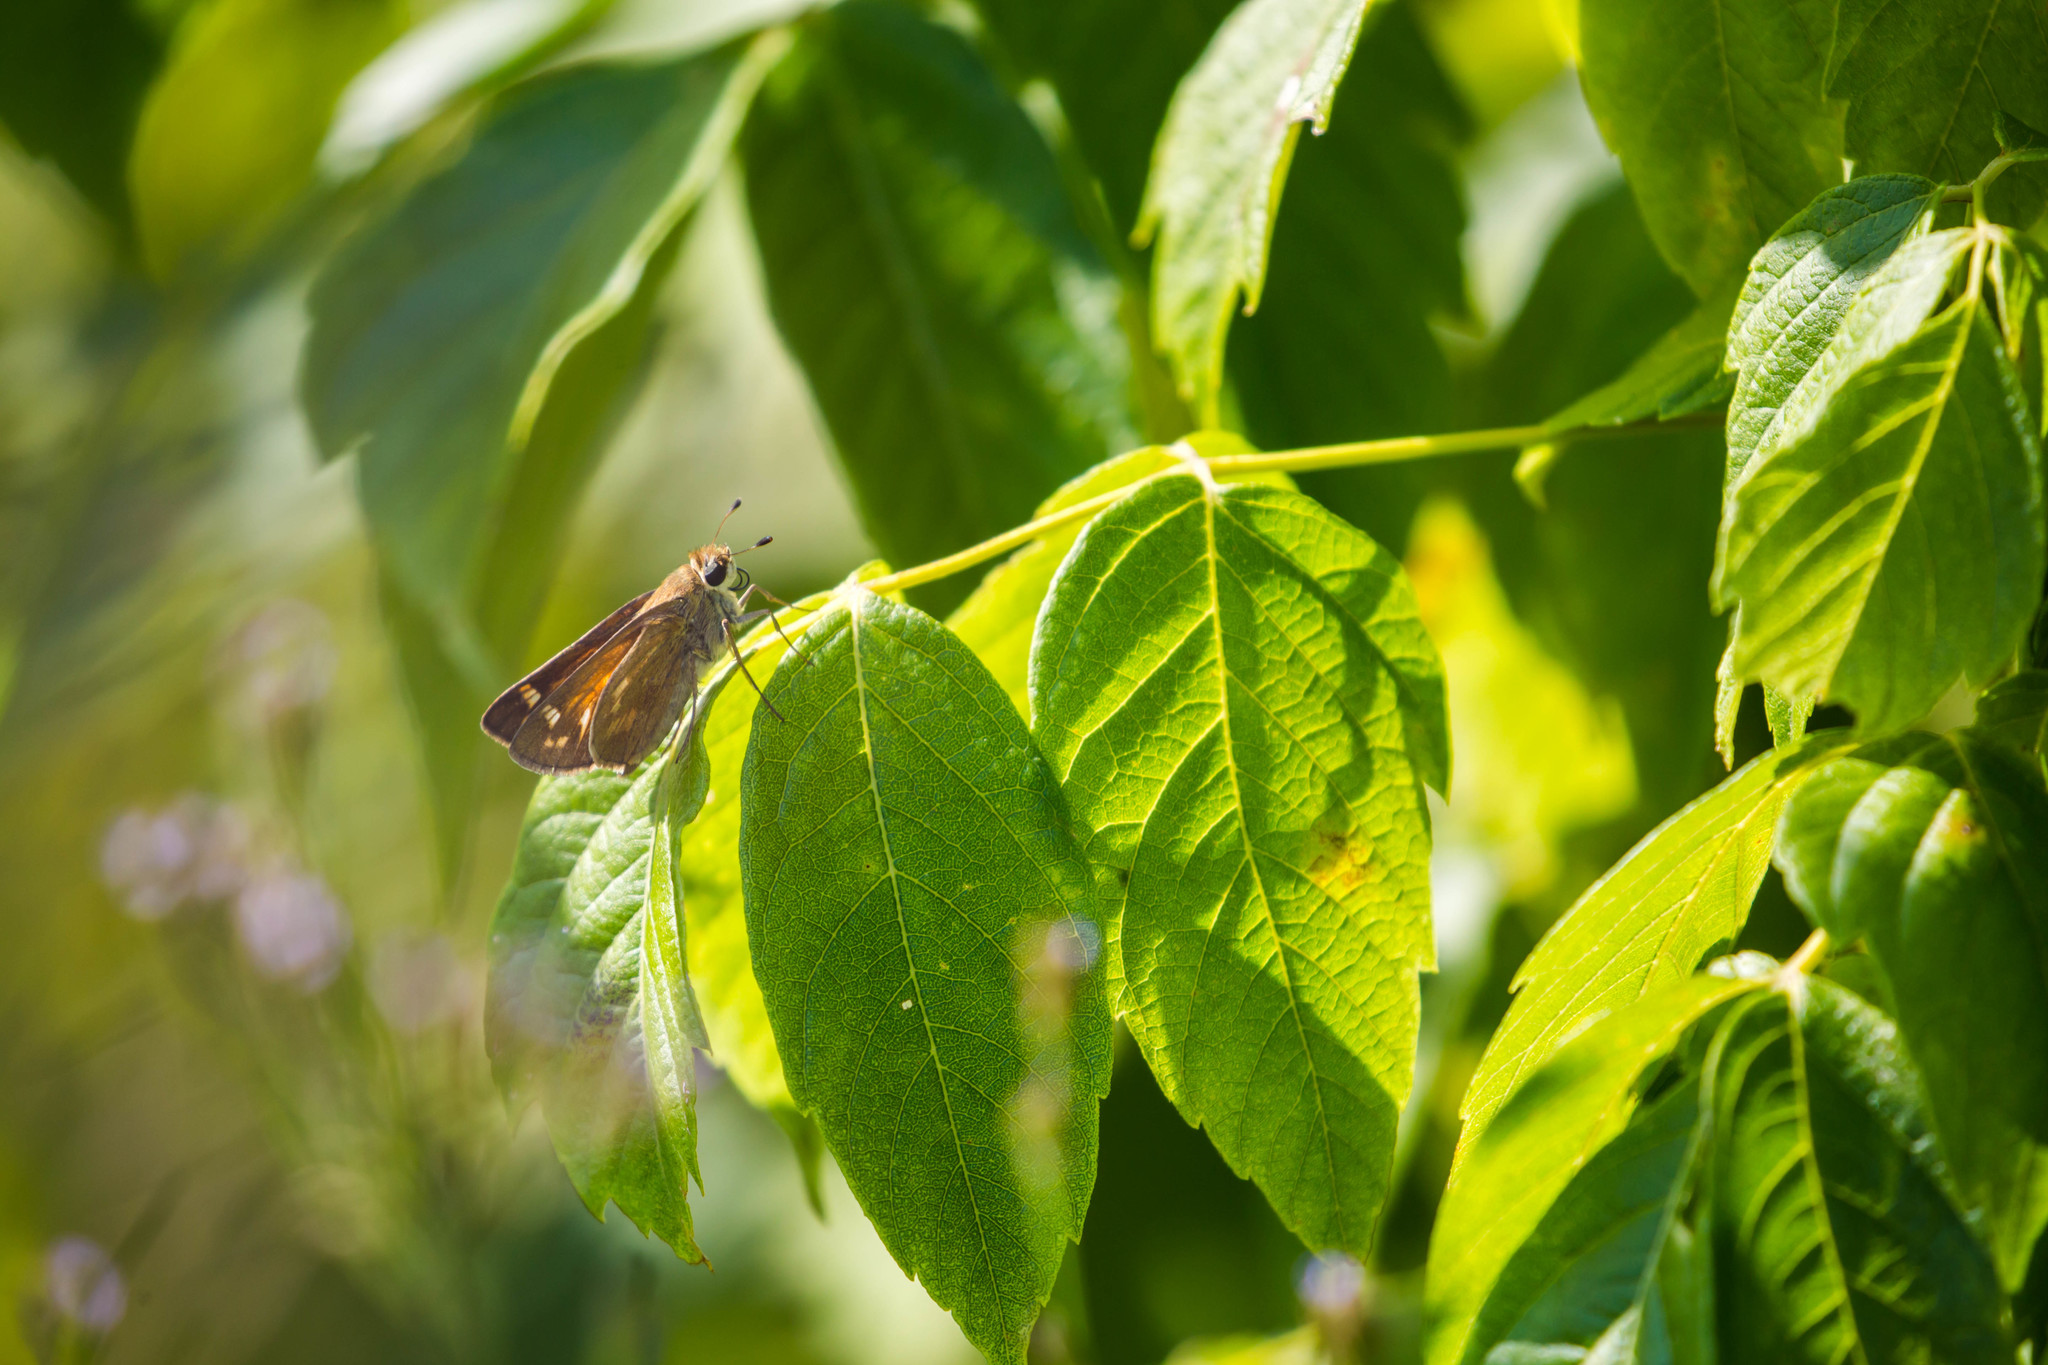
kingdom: Animalia
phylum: Arthropoda
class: Insecta
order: Lepidoptera
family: Hesperiidae
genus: Atalopedes
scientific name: Atalopedes
